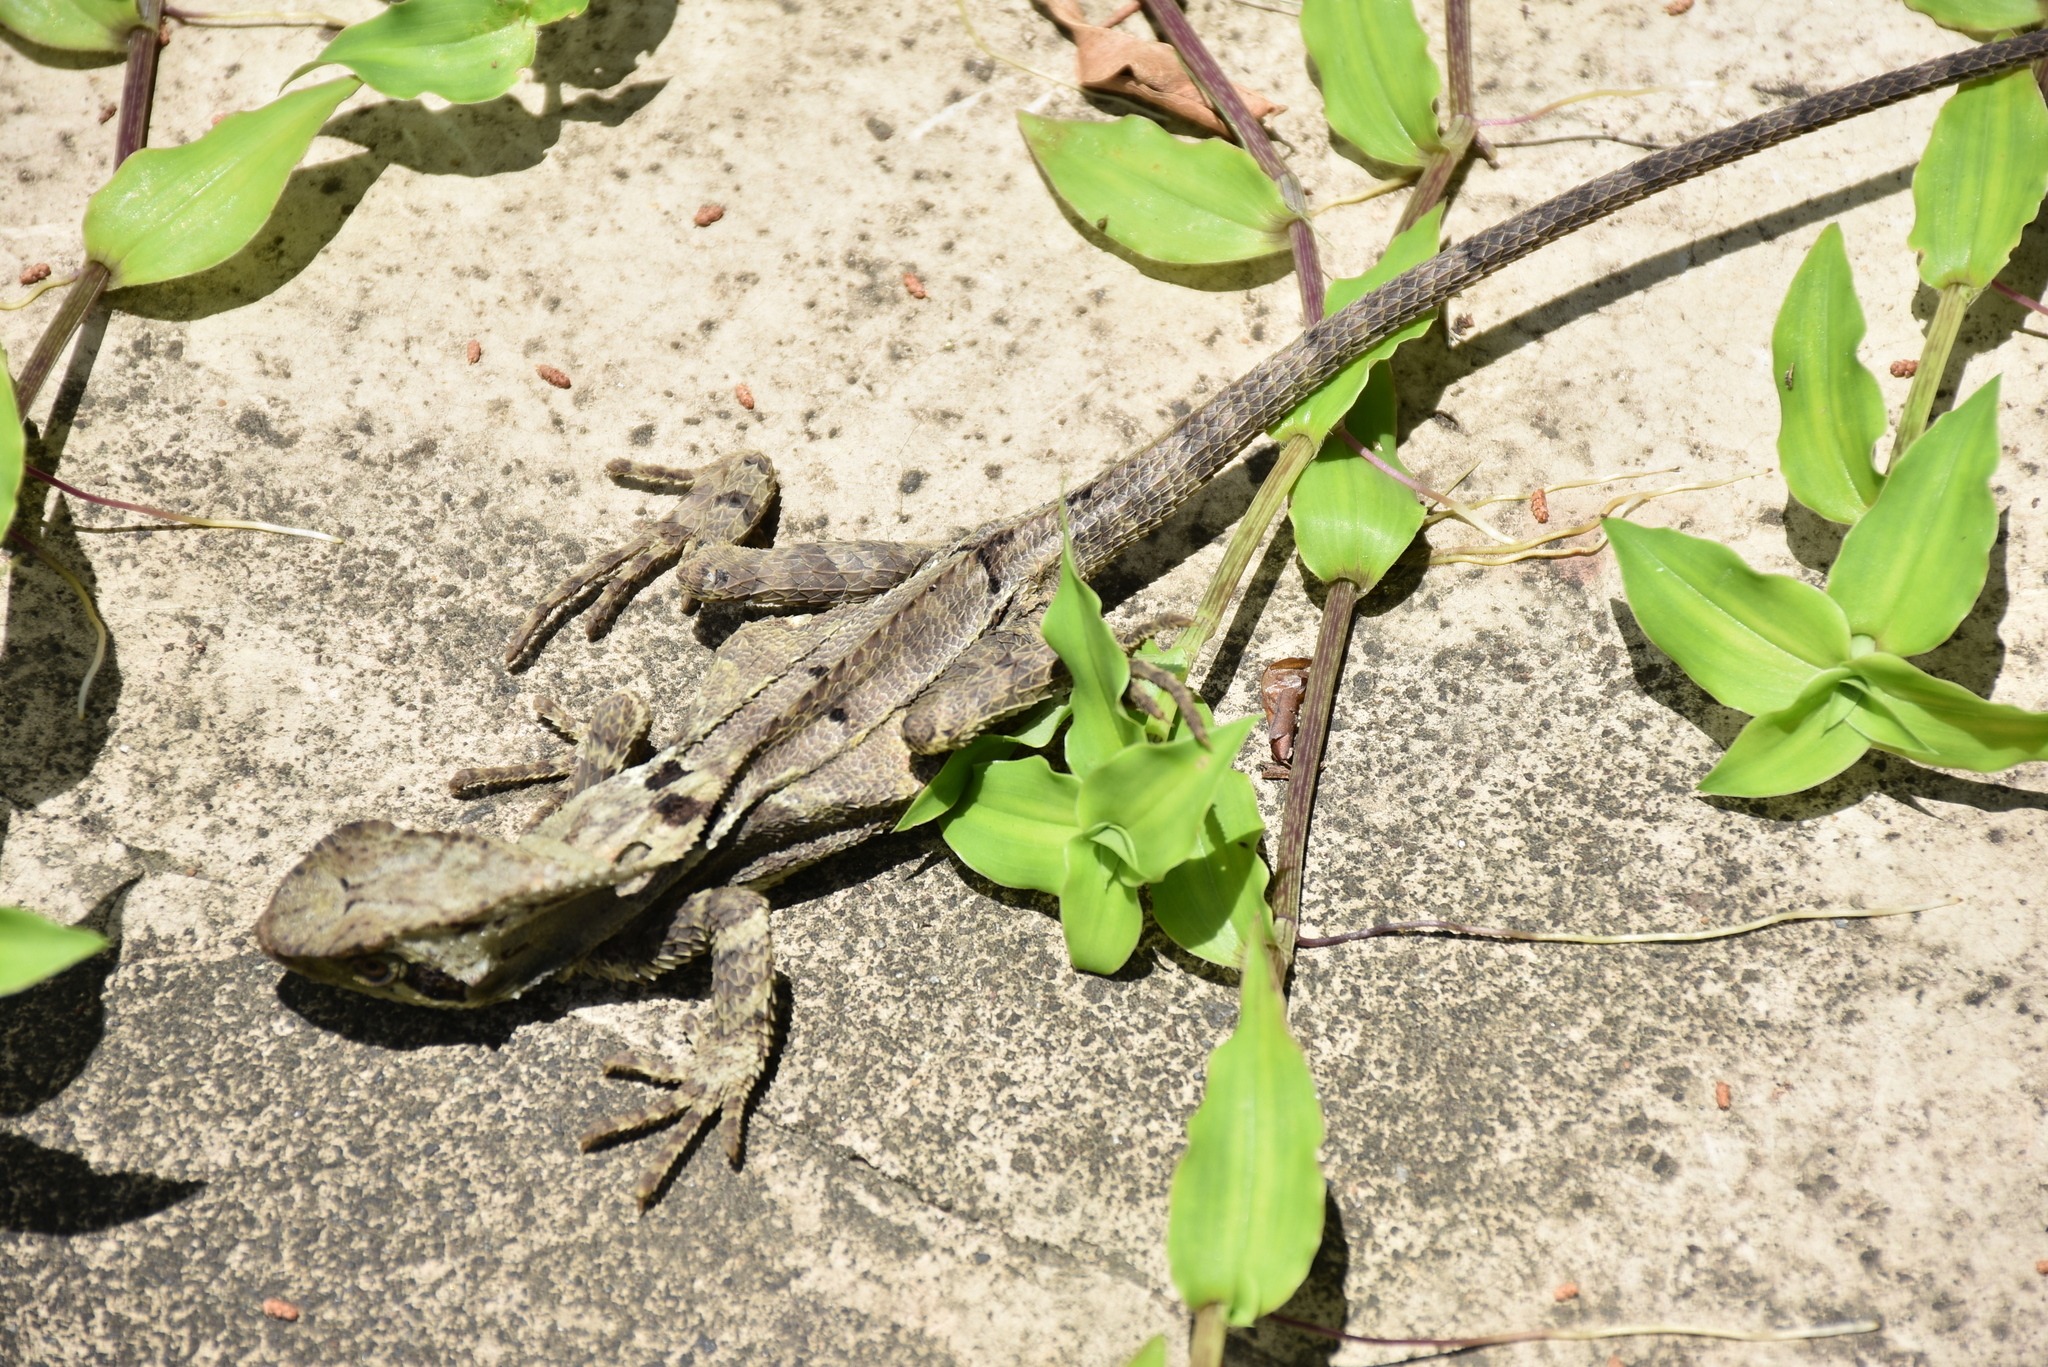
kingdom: Animalia
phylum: Chordata
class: Squamata
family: Corytophanidae
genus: Corytophanes
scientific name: Corytophanes percarinatus
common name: Keeled helmeted iguana
